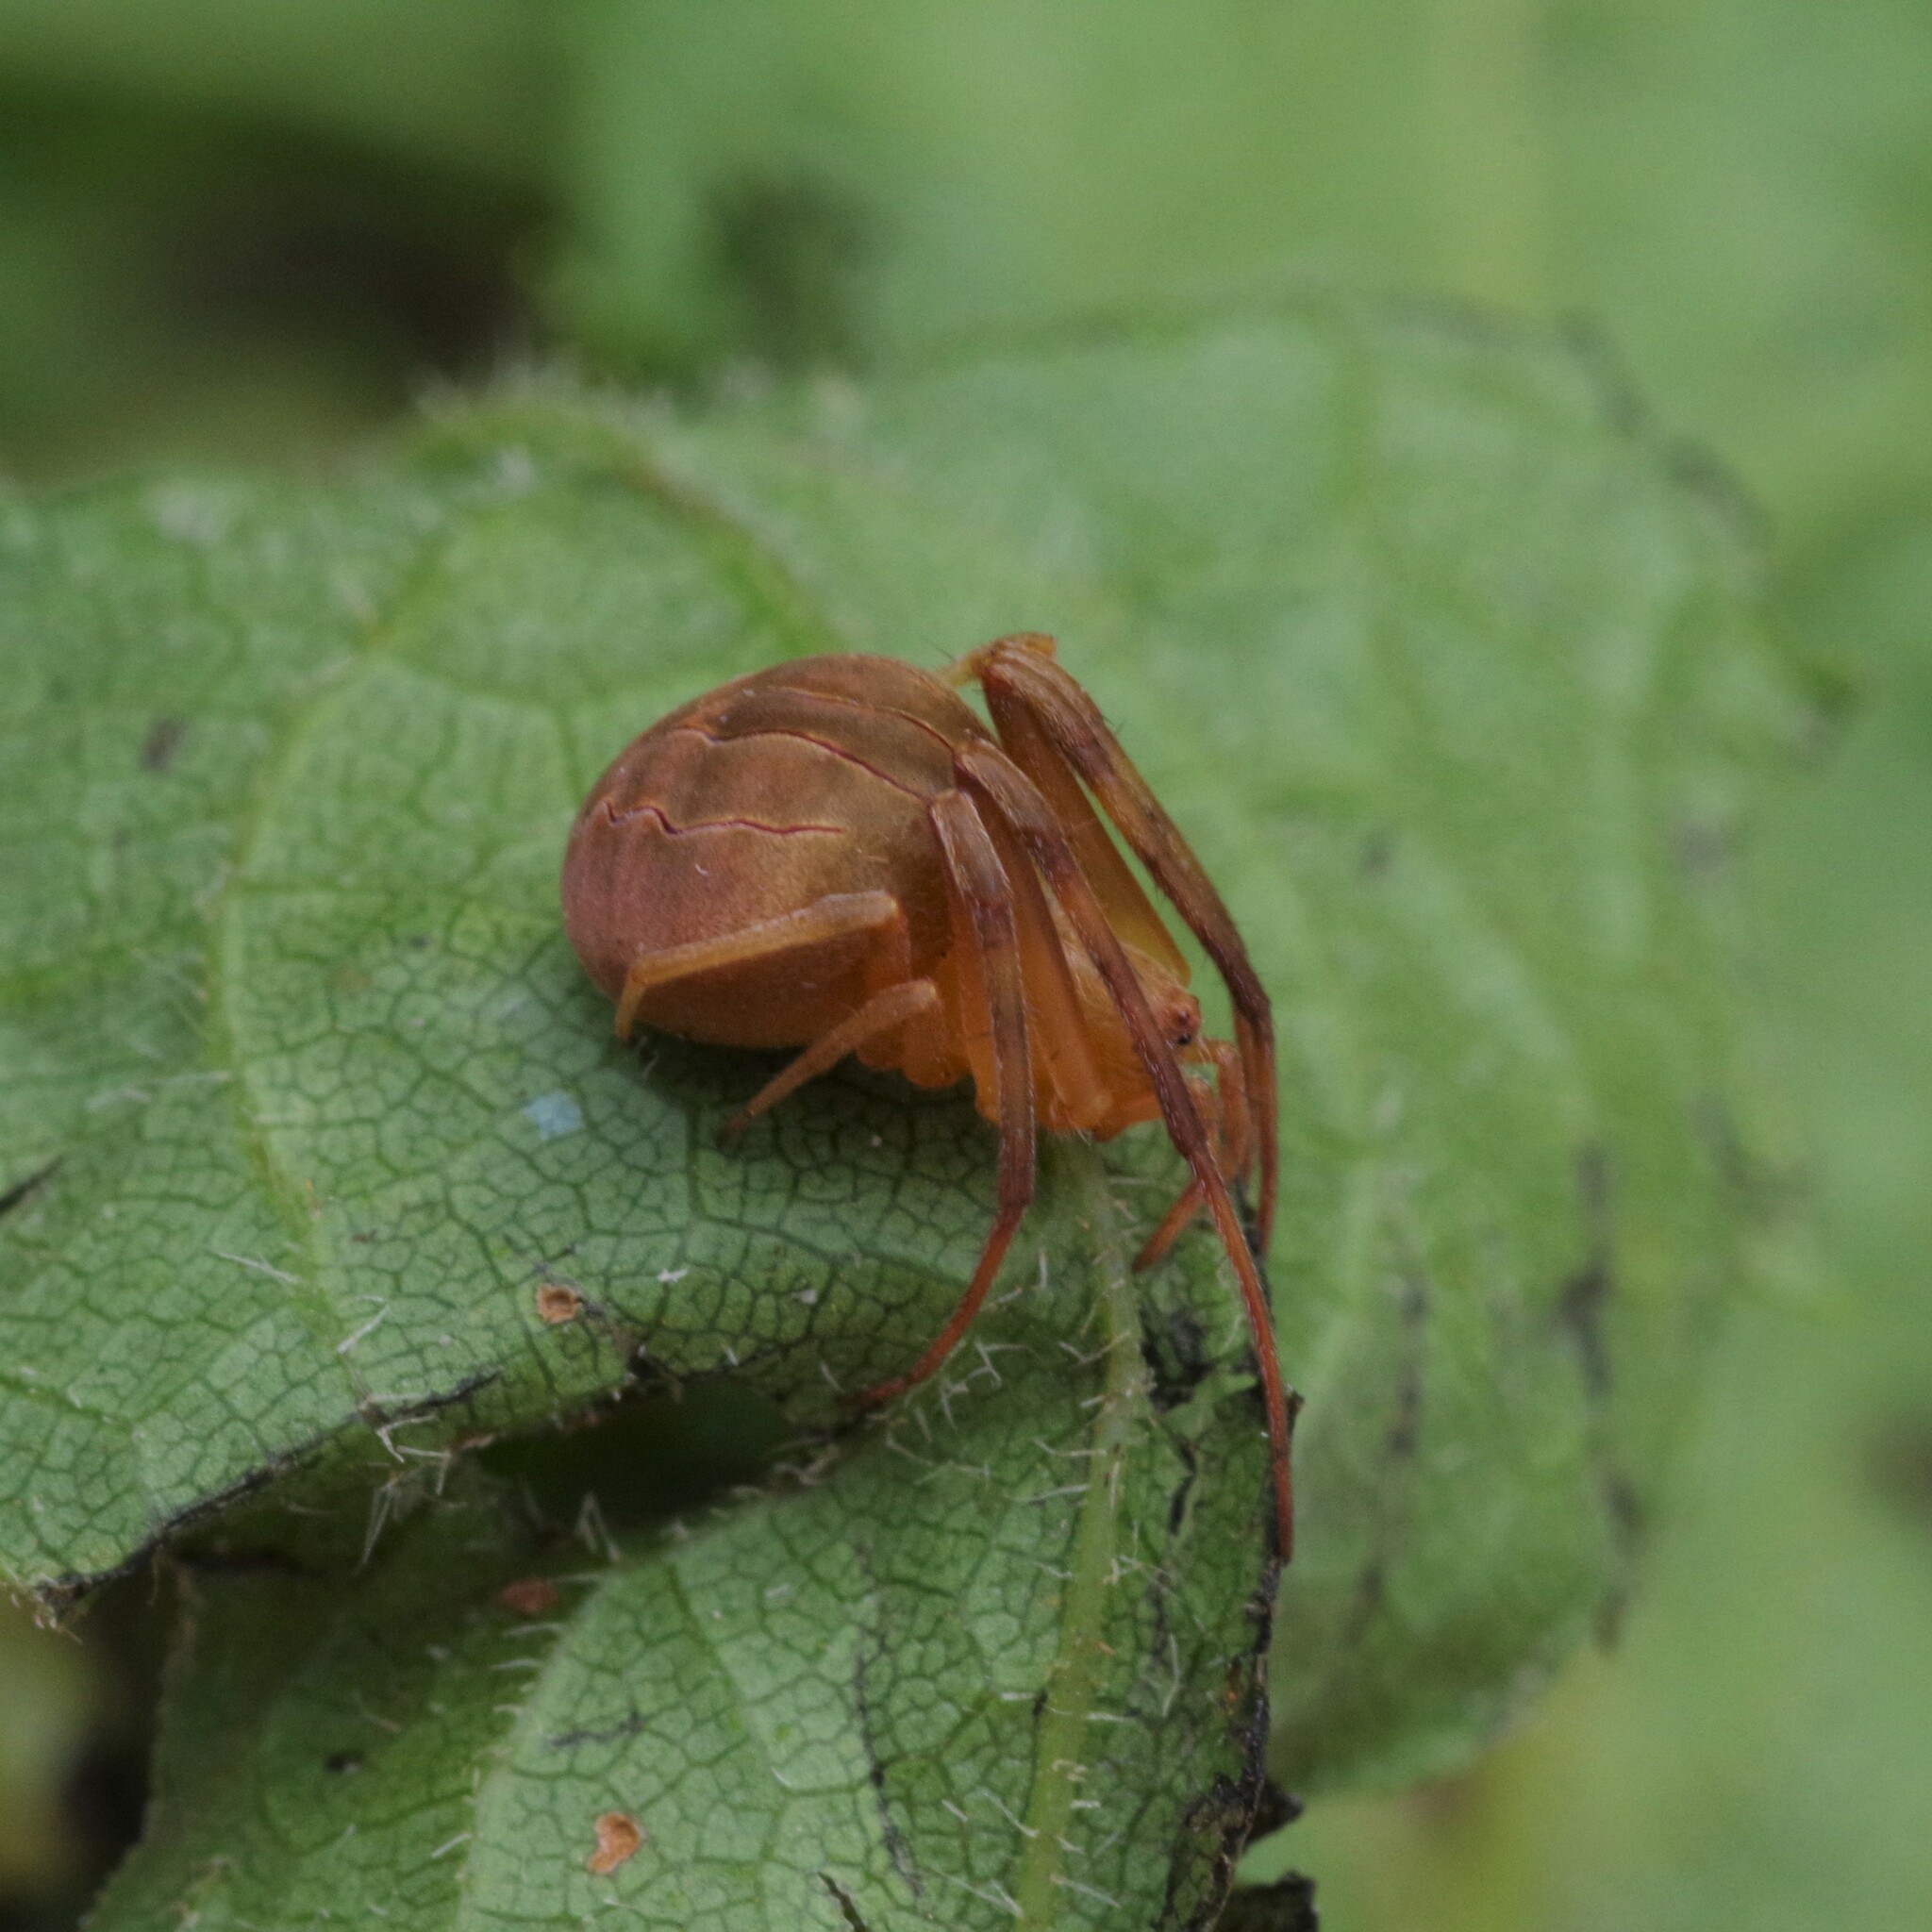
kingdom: Animalia
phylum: Arthropoda
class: Arachnida
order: Araneae
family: Araneidae
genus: Acacesia
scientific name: Acacesia hamata
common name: Orb weavers
